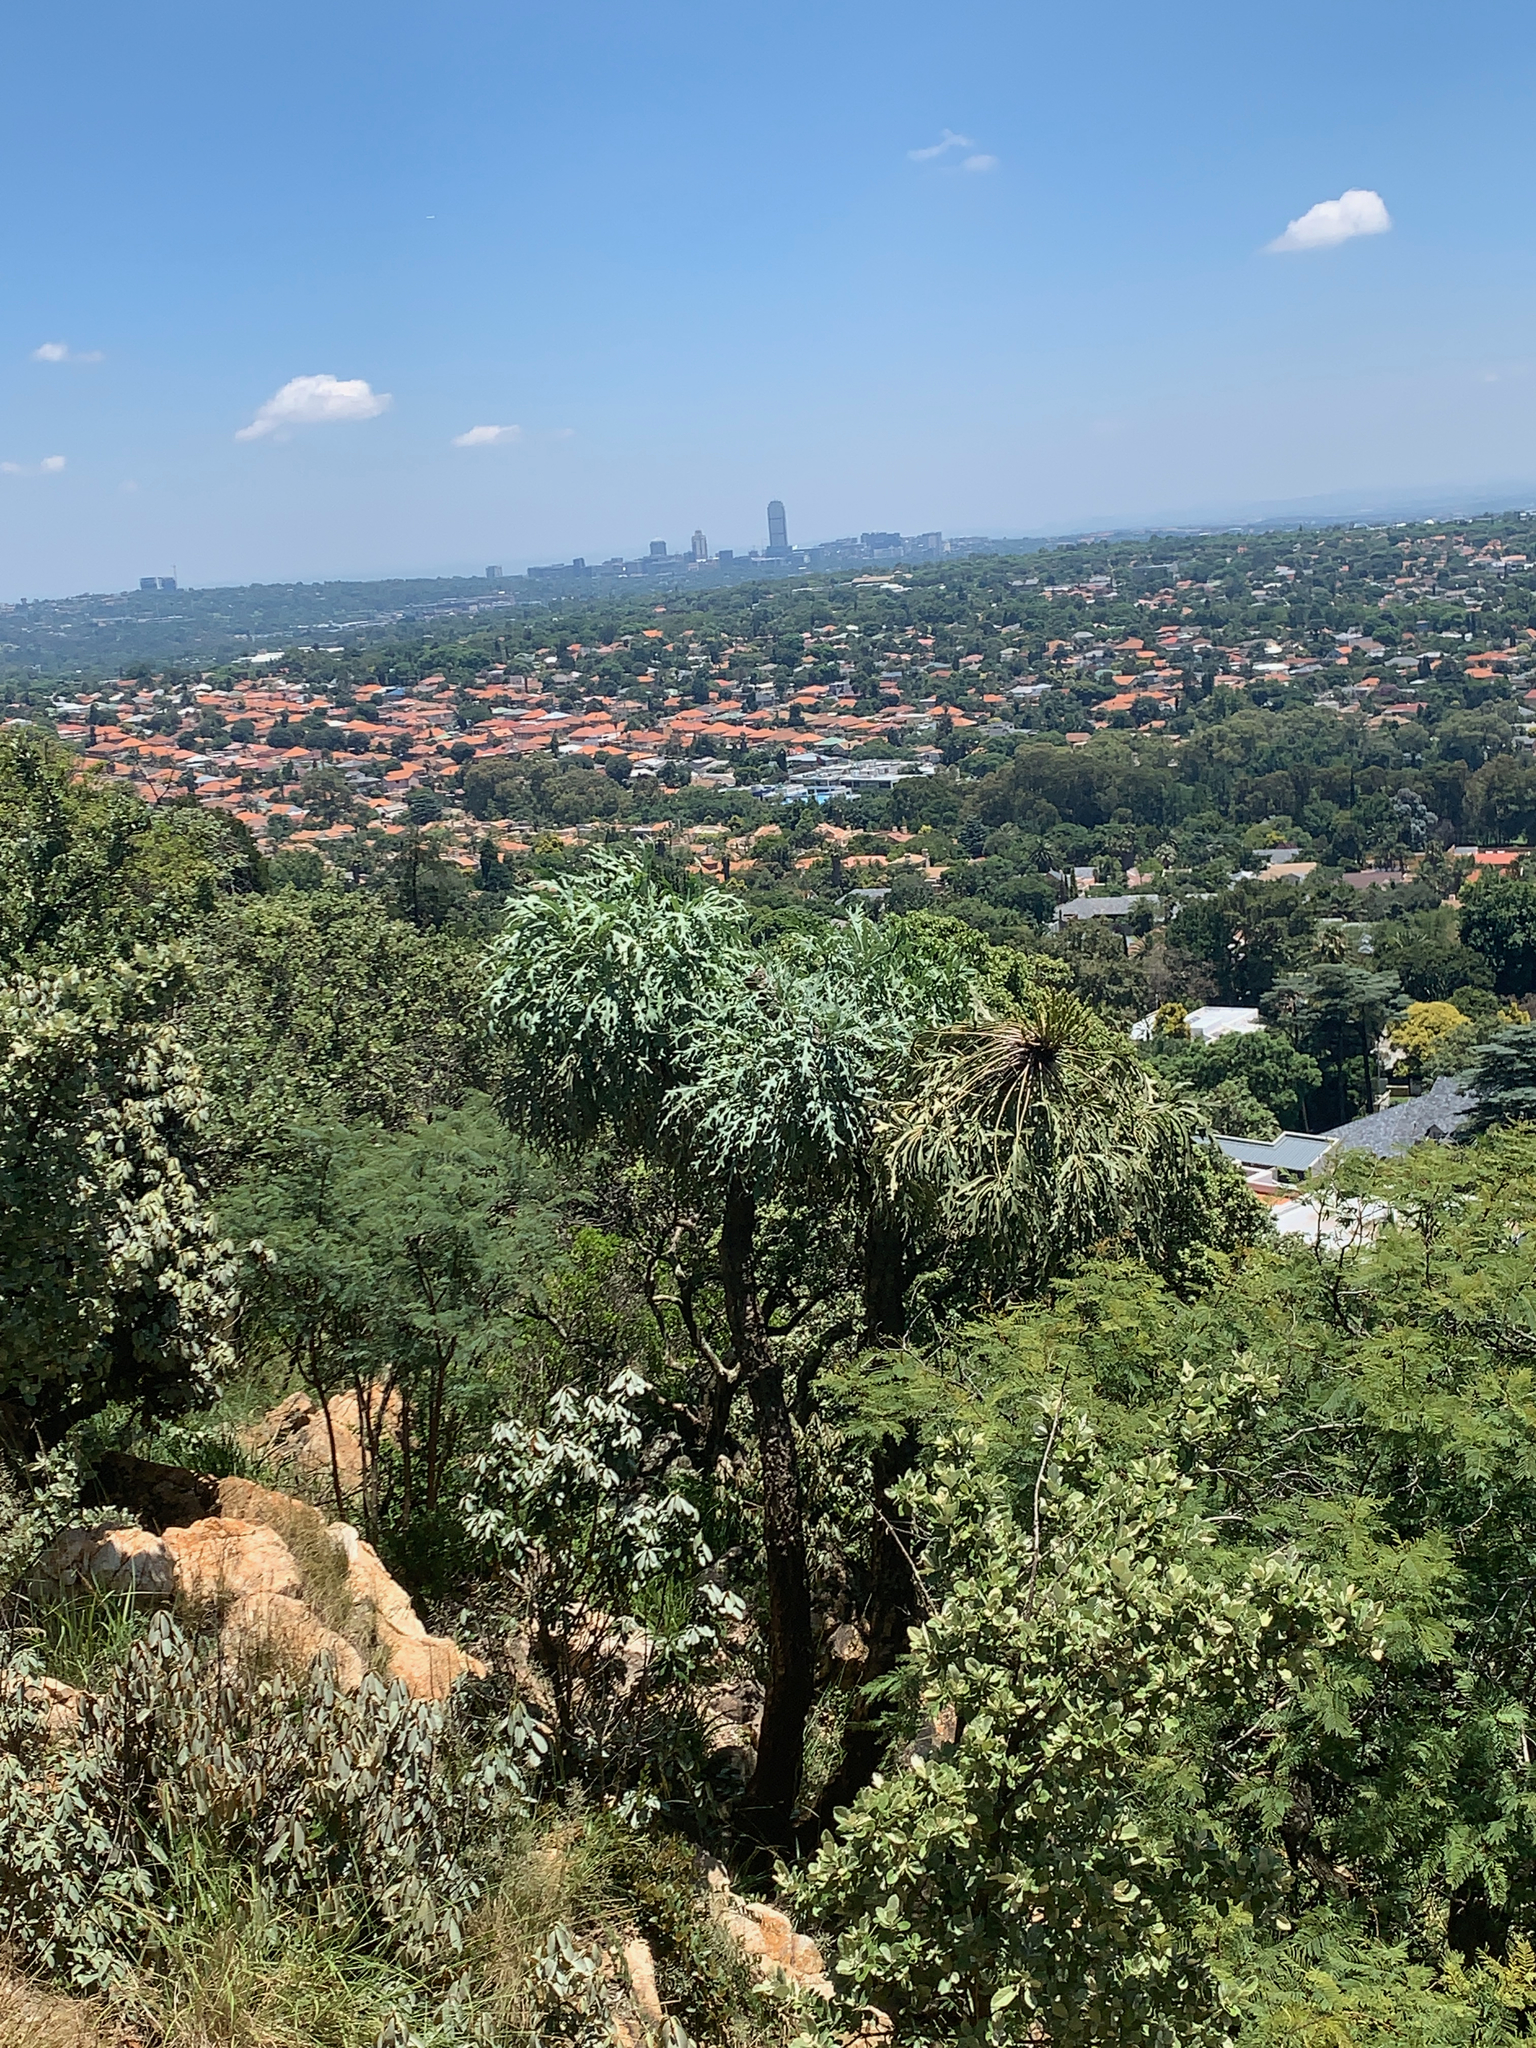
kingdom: Plantae
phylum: Tracheophyta
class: Magnoliopsida
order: Apiales
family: Araliaceae
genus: Cussonia
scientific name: Cussonia paniculata
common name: Cabbagetree
